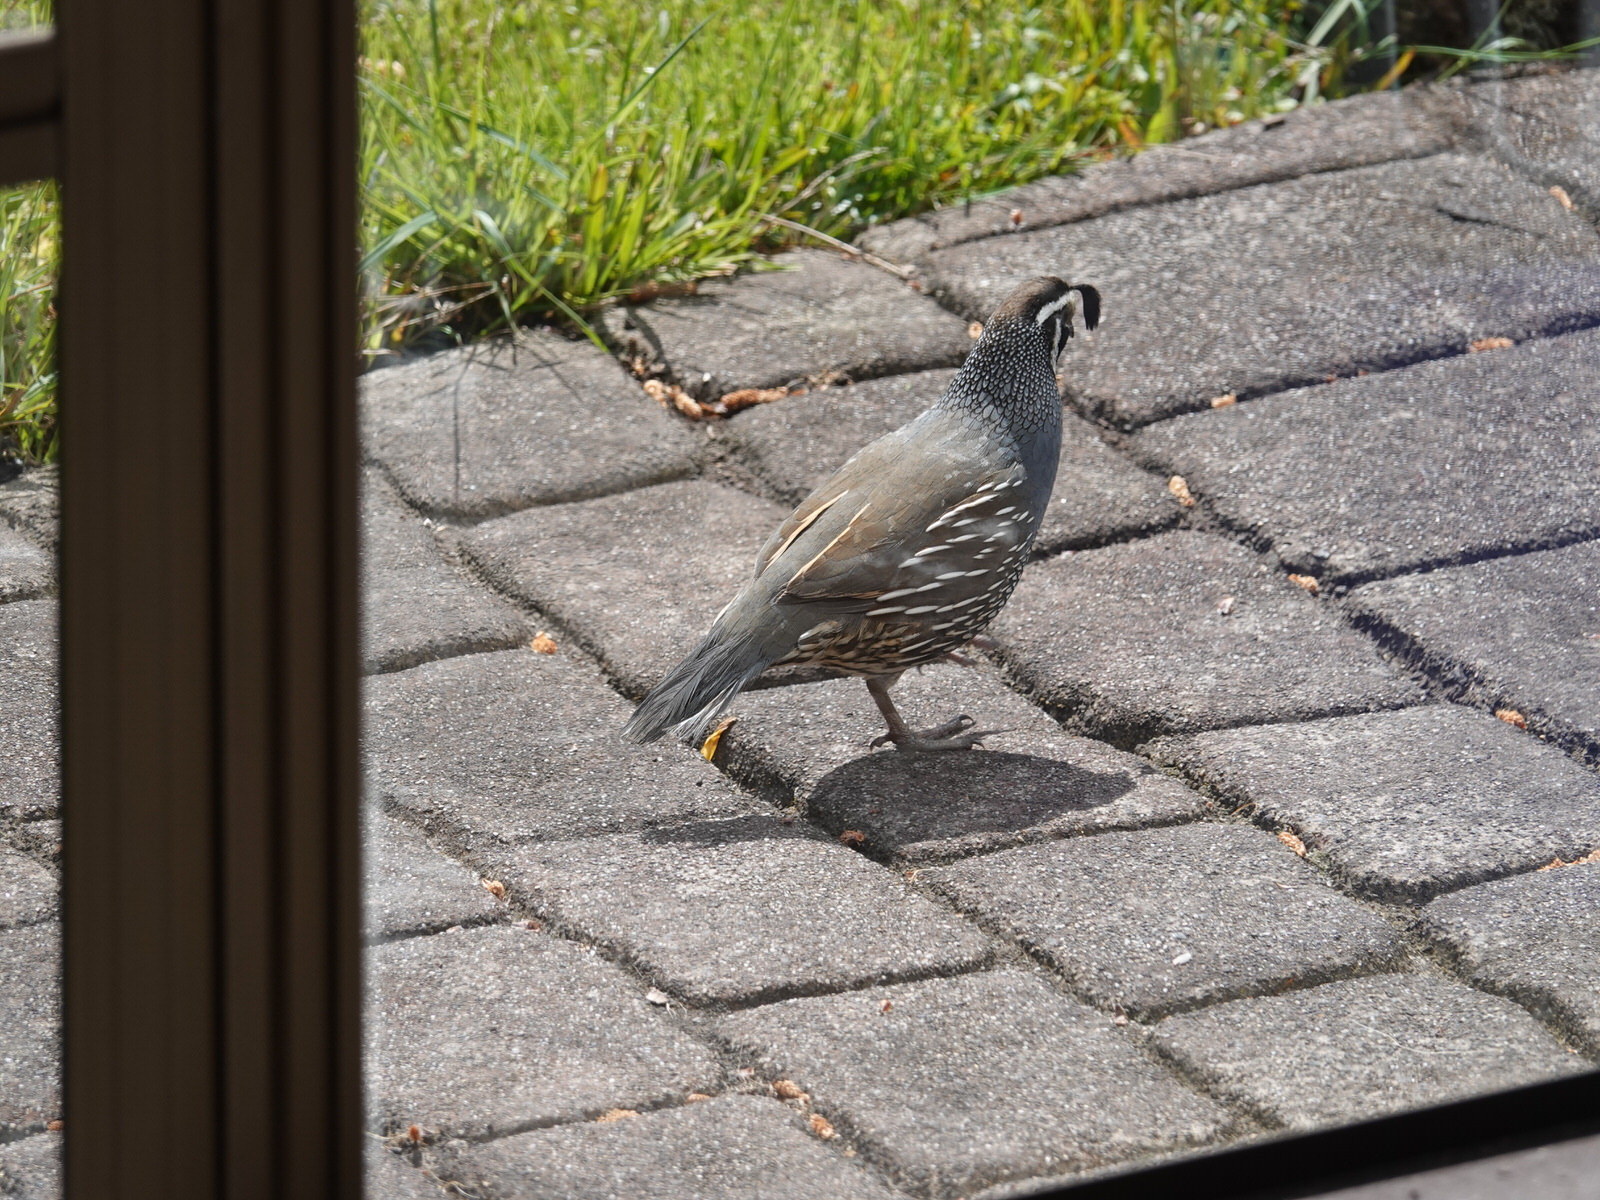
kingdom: Animalia
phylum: Chordata
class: Aves
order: Galliformes
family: Odontophoridae
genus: Callipepla
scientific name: Callipepla californica
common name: California quail
